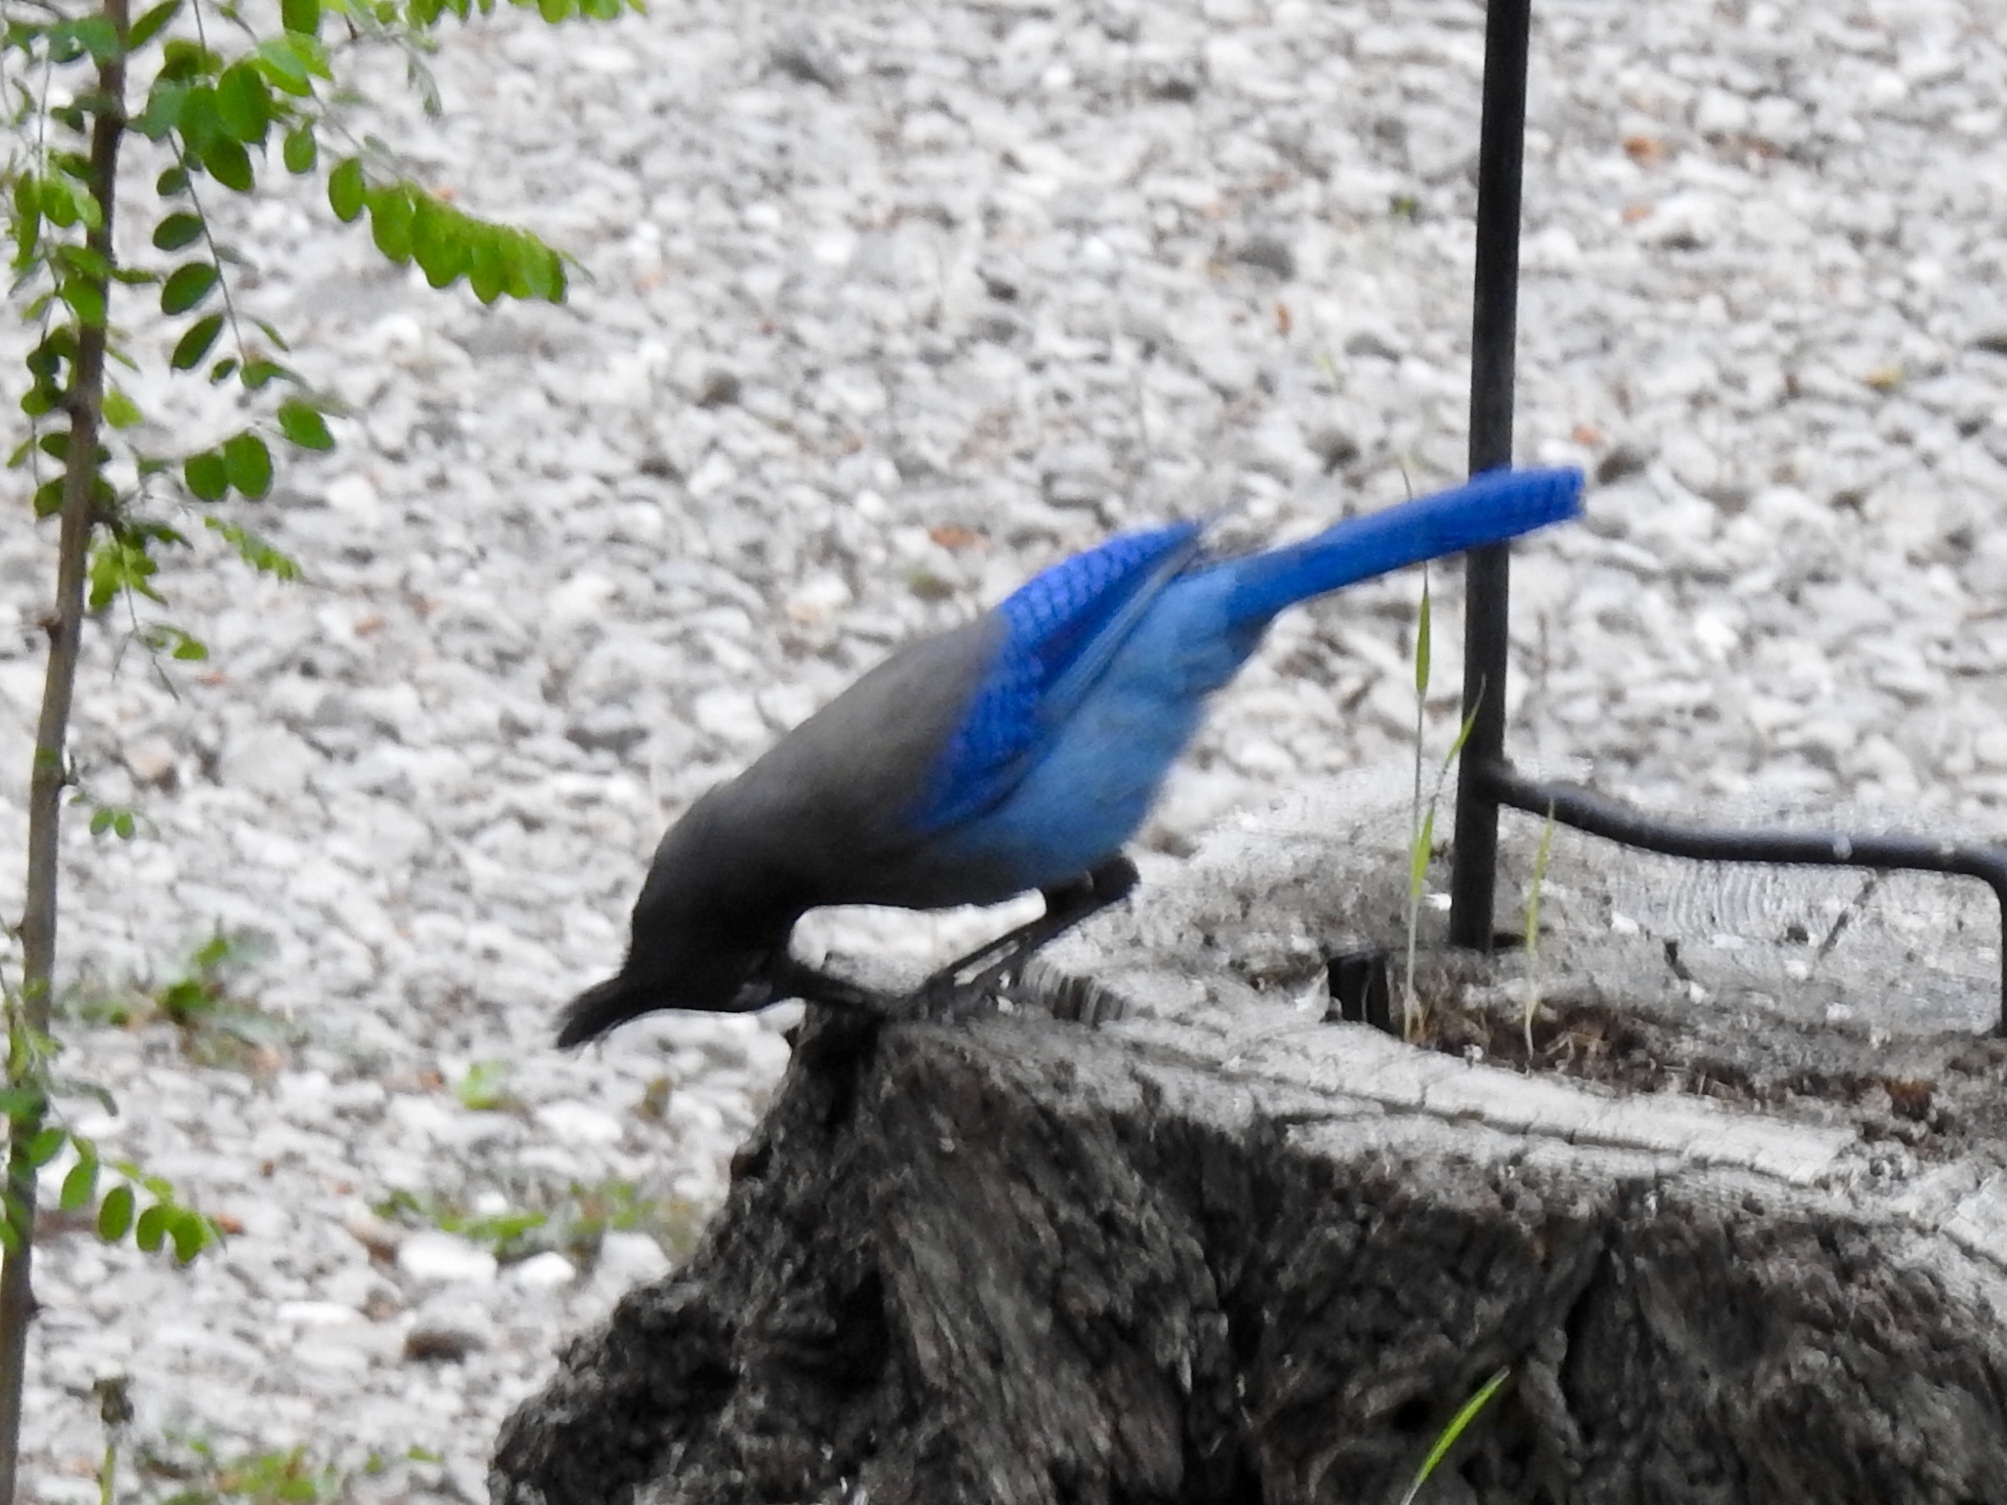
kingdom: Animalia
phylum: Chordata
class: Aves
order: Passeriformes
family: Corvidae
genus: Cyanocitta
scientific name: Cyanocitta stelleri
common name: Steller's jay
